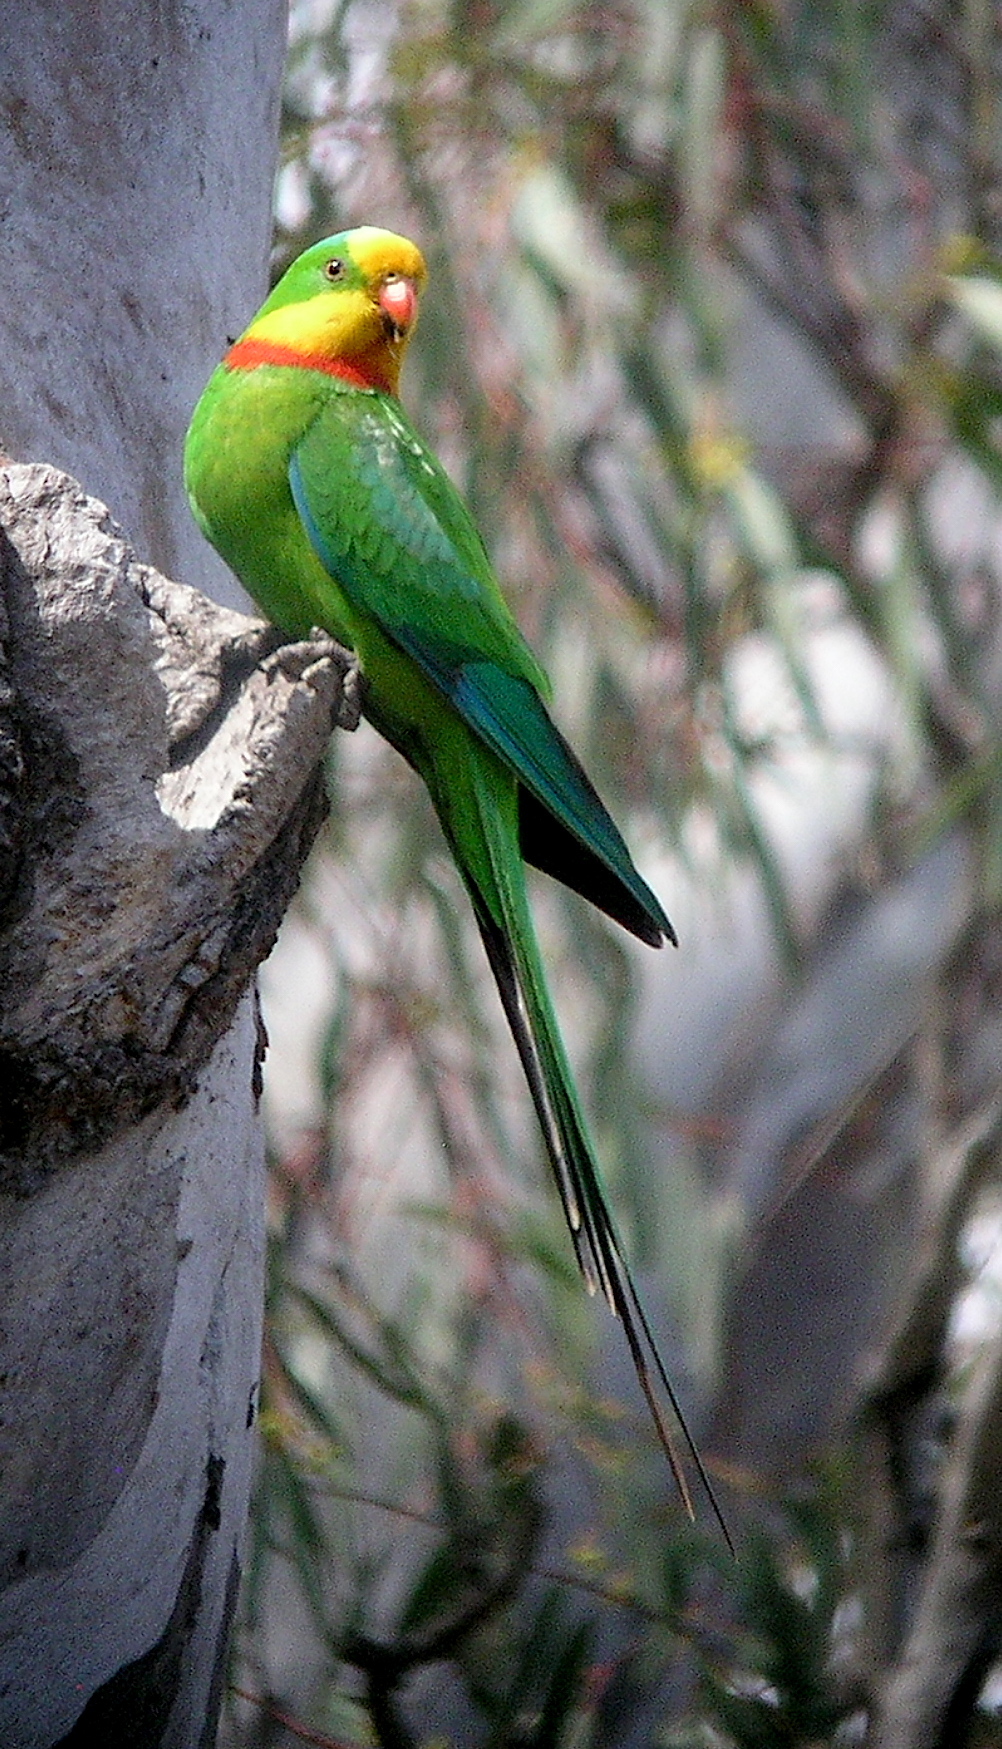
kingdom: Animalia
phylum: Chordata
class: Aves
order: Psittaciformes
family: Psittacidae
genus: Polytelis
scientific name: Polytelis swainsonii
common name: Superb parrot
